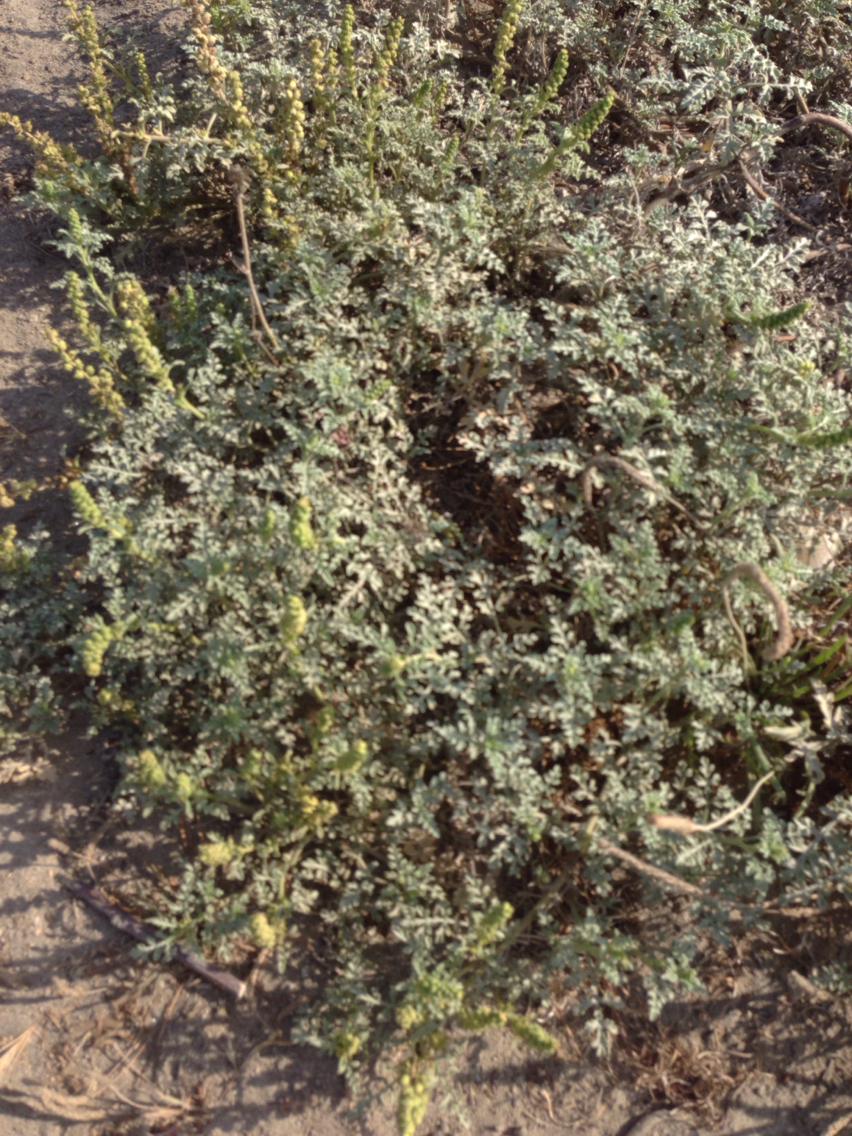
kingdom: Plantae
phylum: Tracheophyta
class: Magnoliopsida
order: Asterales
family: Asteraceae
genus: Ambrosia
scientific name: Ambrosia chamissonis
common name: Beachbur
